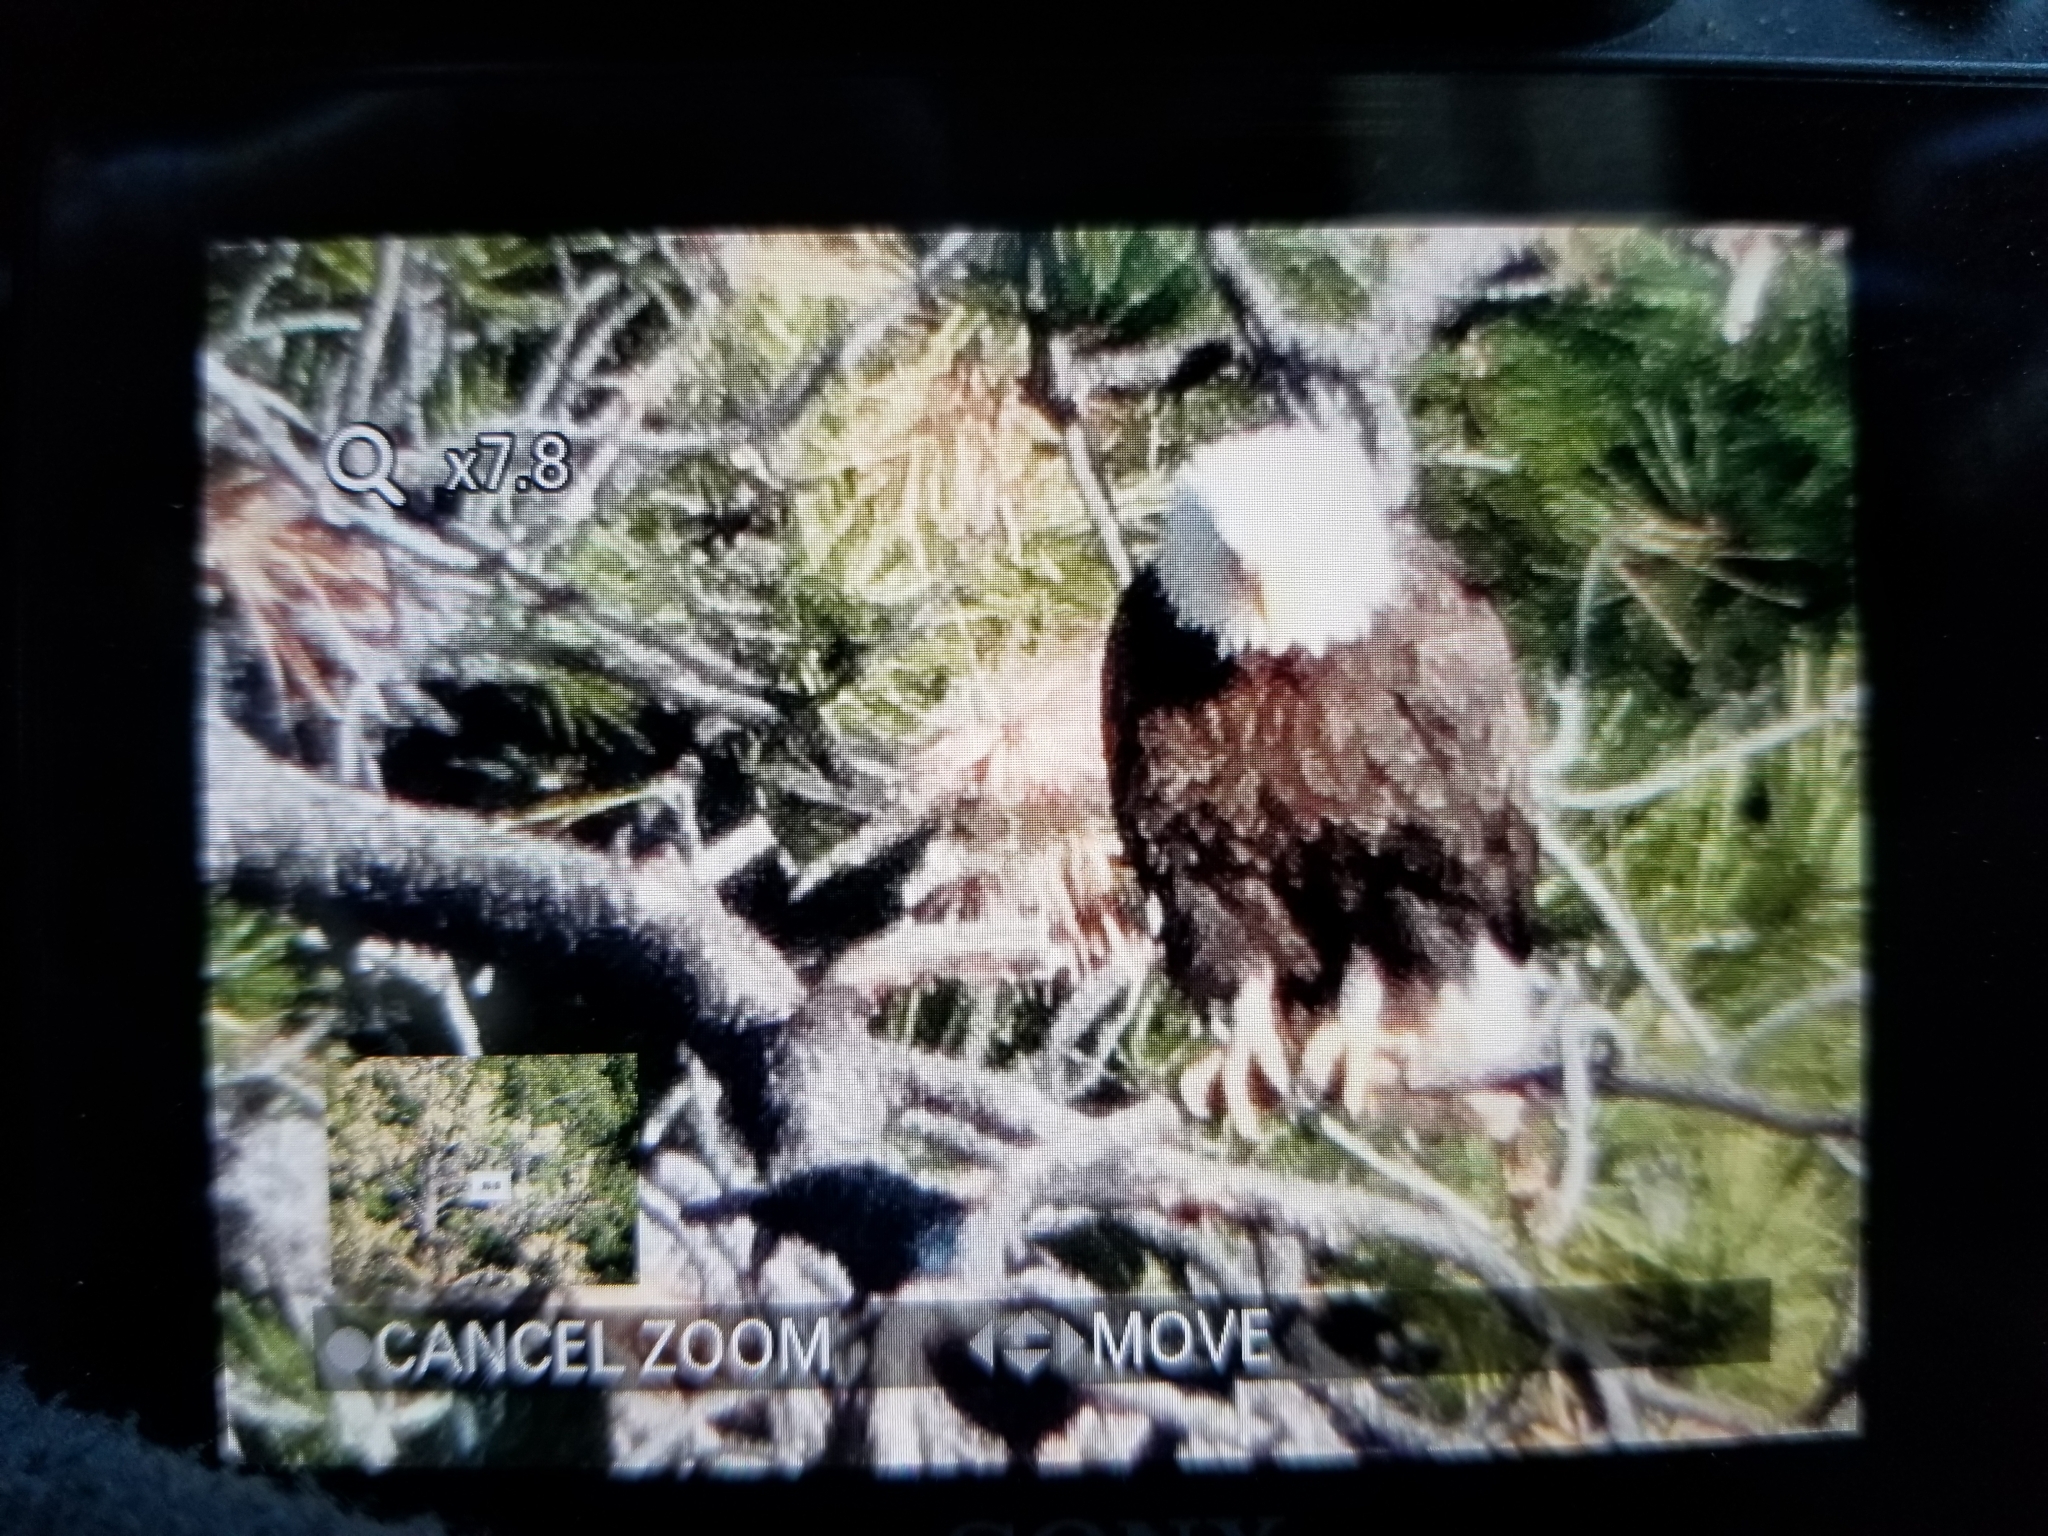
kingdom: Animalia
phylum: Chordata
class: Aves
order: Accipitriformes
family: Accipitridae
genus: Haliaeetus
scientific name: Haliaeetus leucocephalus
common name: Bald eagle
